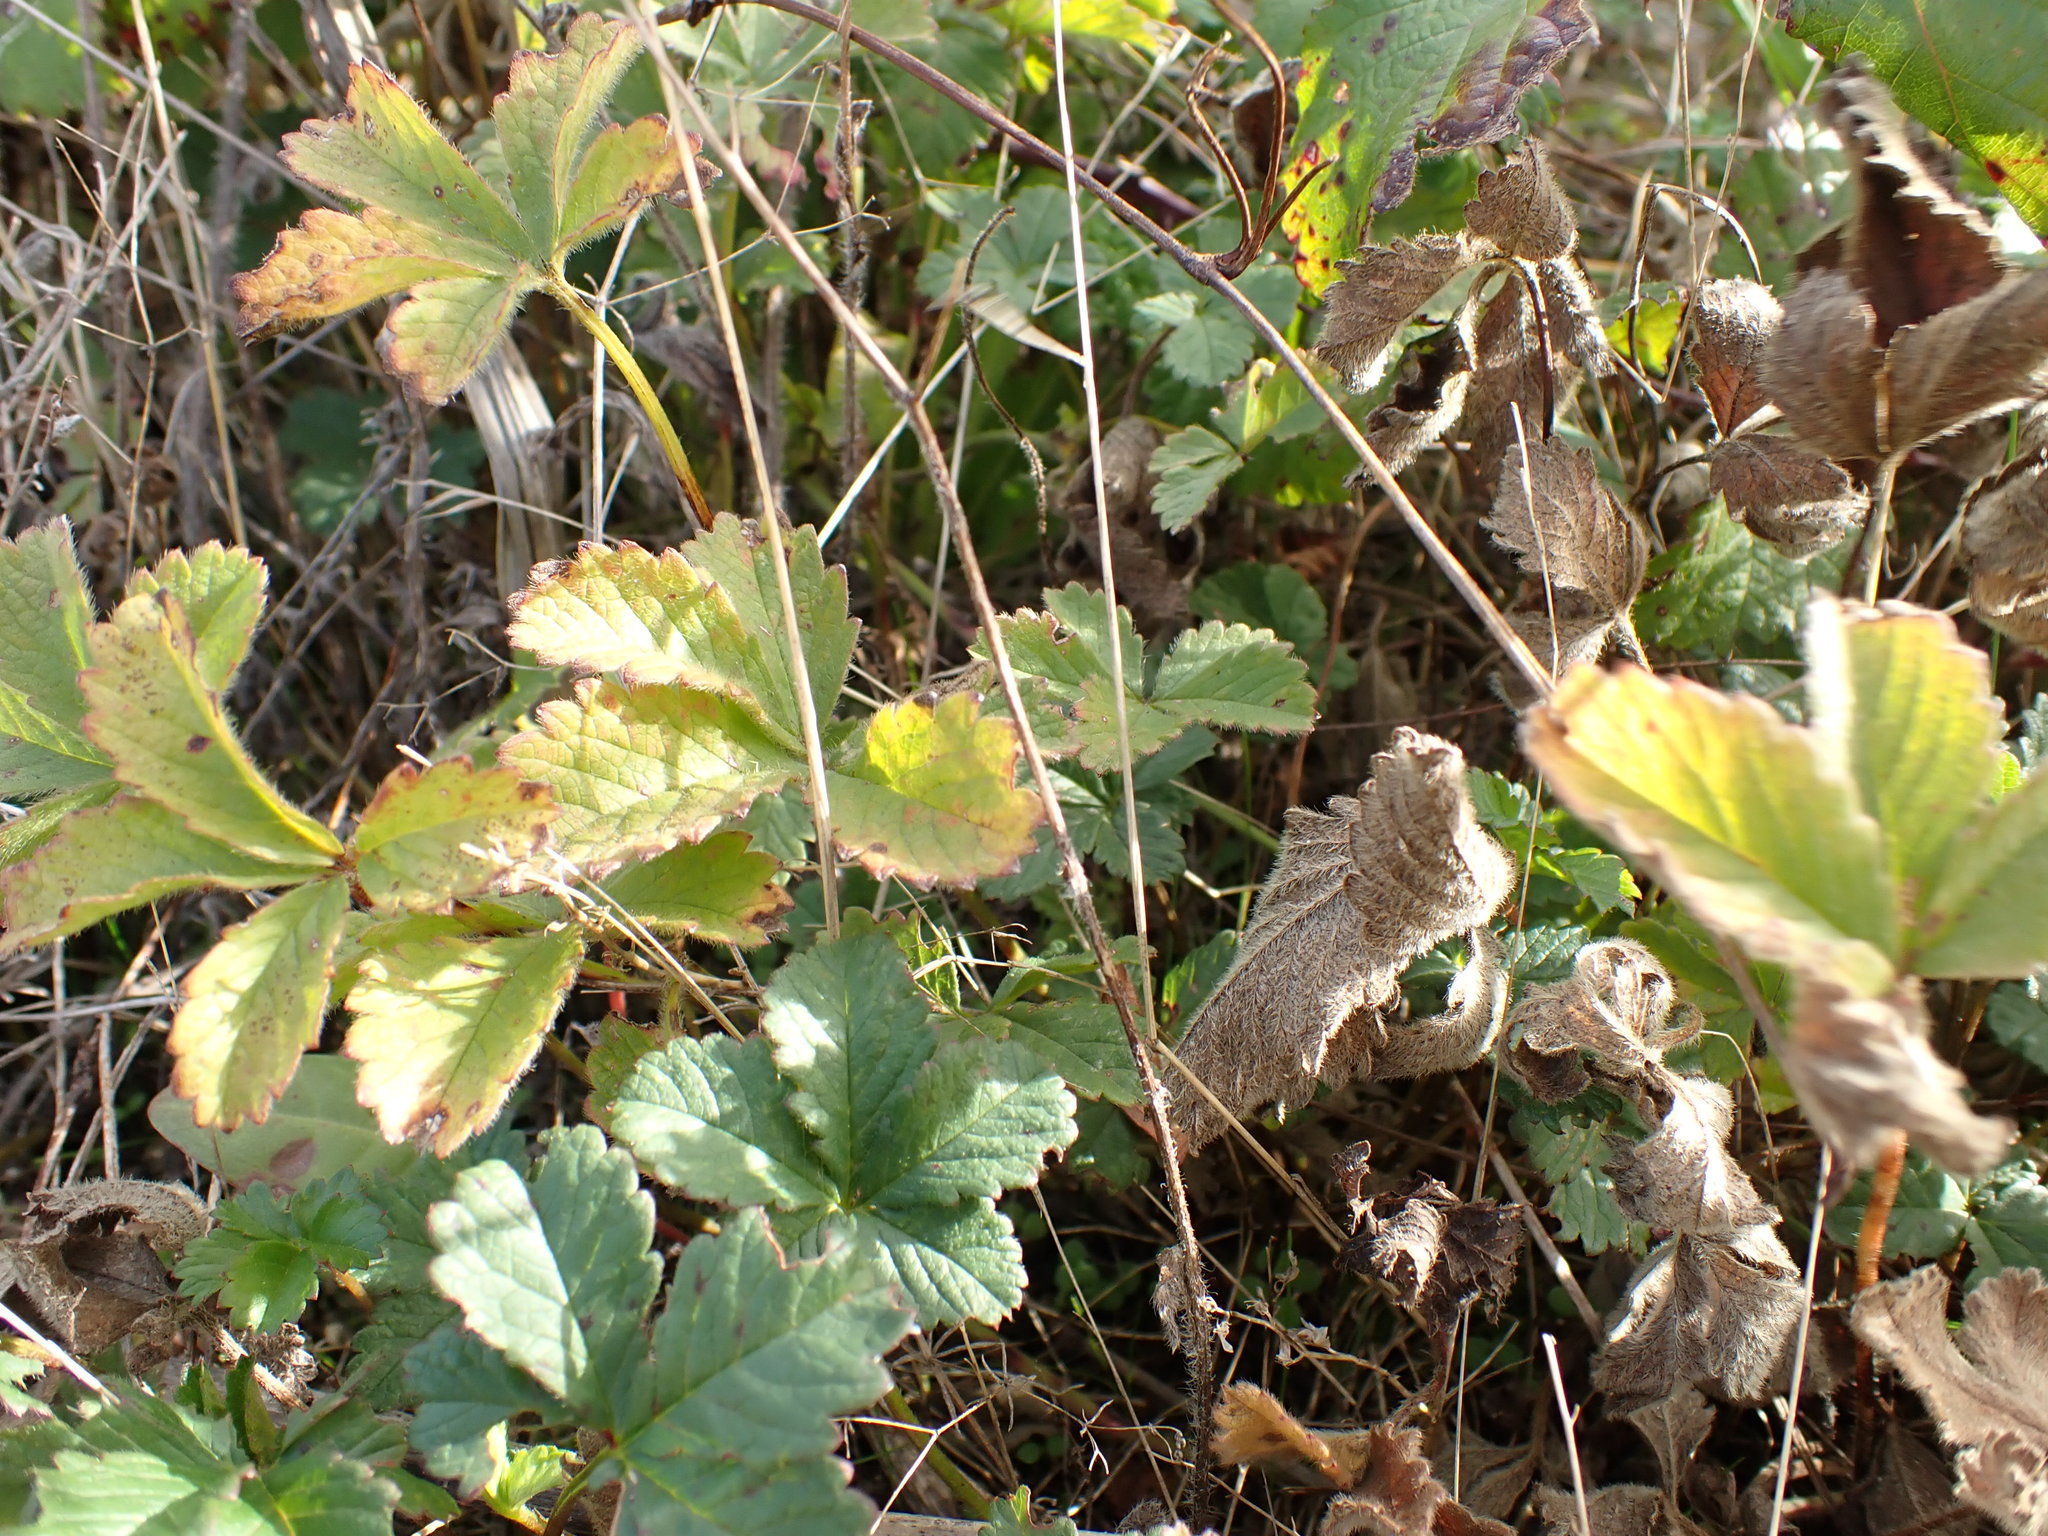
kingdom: Plantae
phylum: Tracheophyta
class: Magnoliopsida
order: Rosales
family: Rosaceae
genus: Potentilla
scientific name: Potentilla reptans
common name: Creeping cinquefoil
